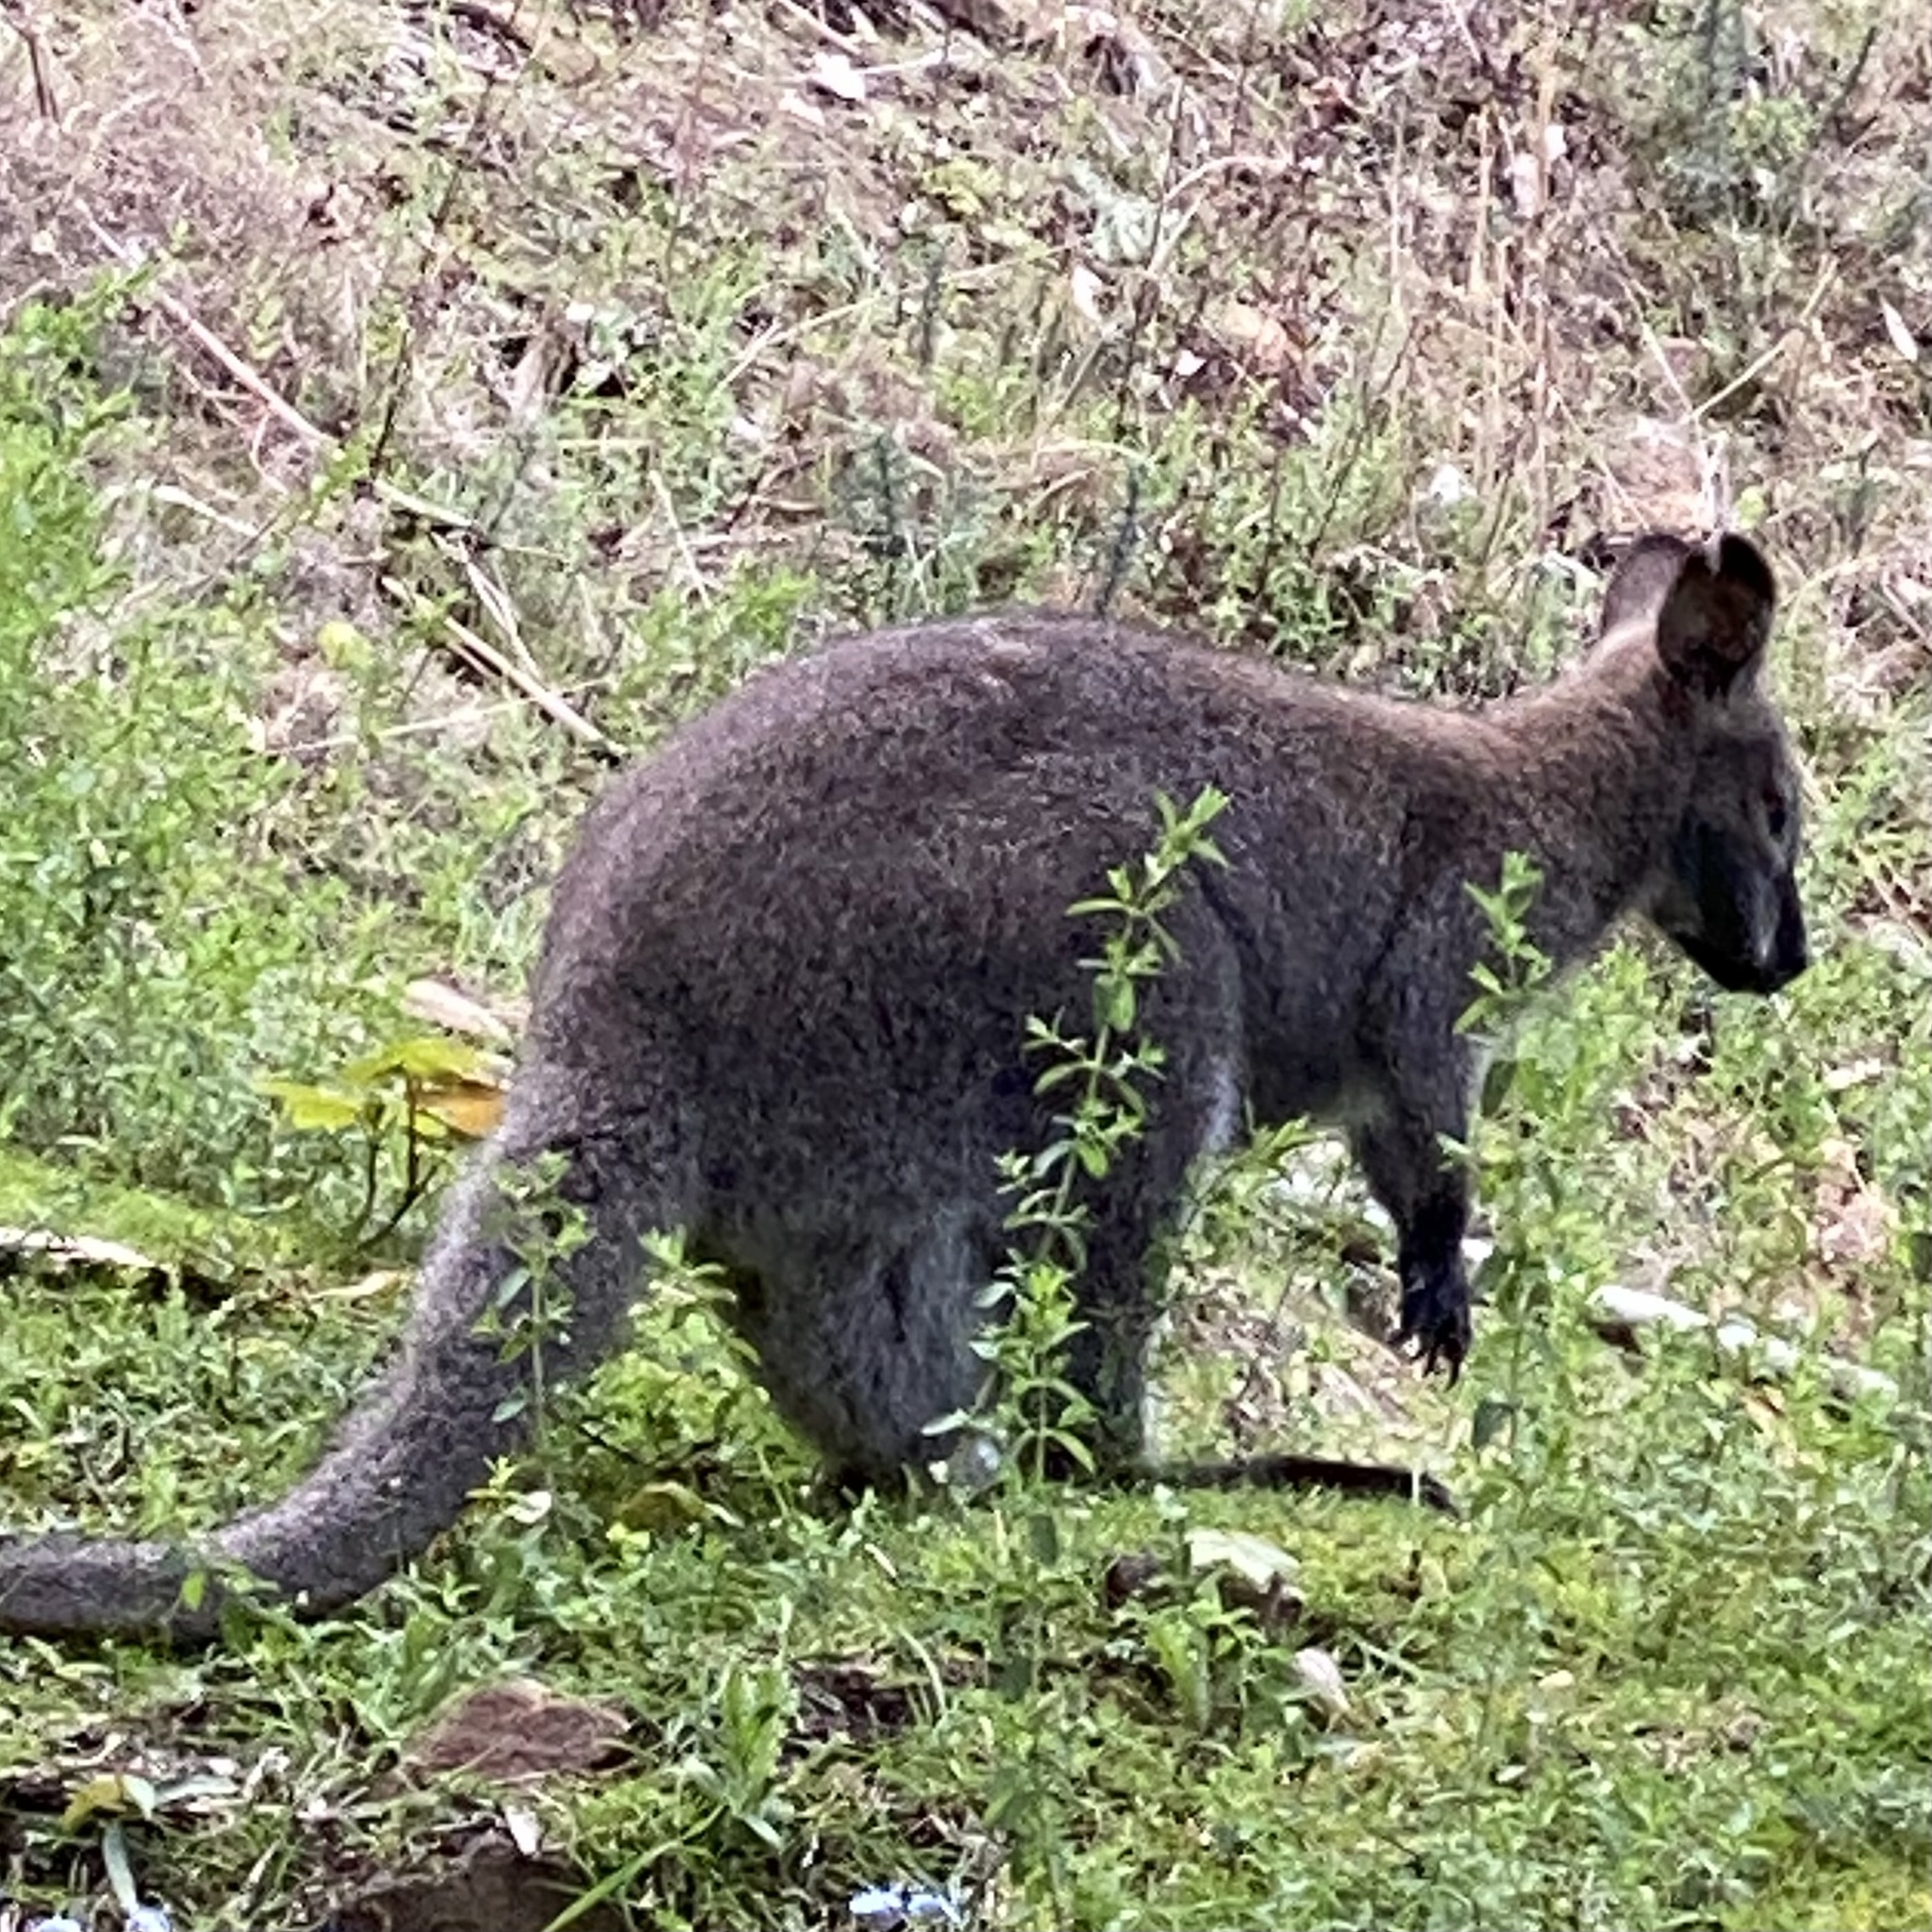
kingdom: Animalia
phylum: Chordata
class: Mammalia
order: Diprotodontia
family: Macropodidae
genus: Notamacropus
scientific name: Notamacropus rufogriseus
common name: Red-necked wallaby
